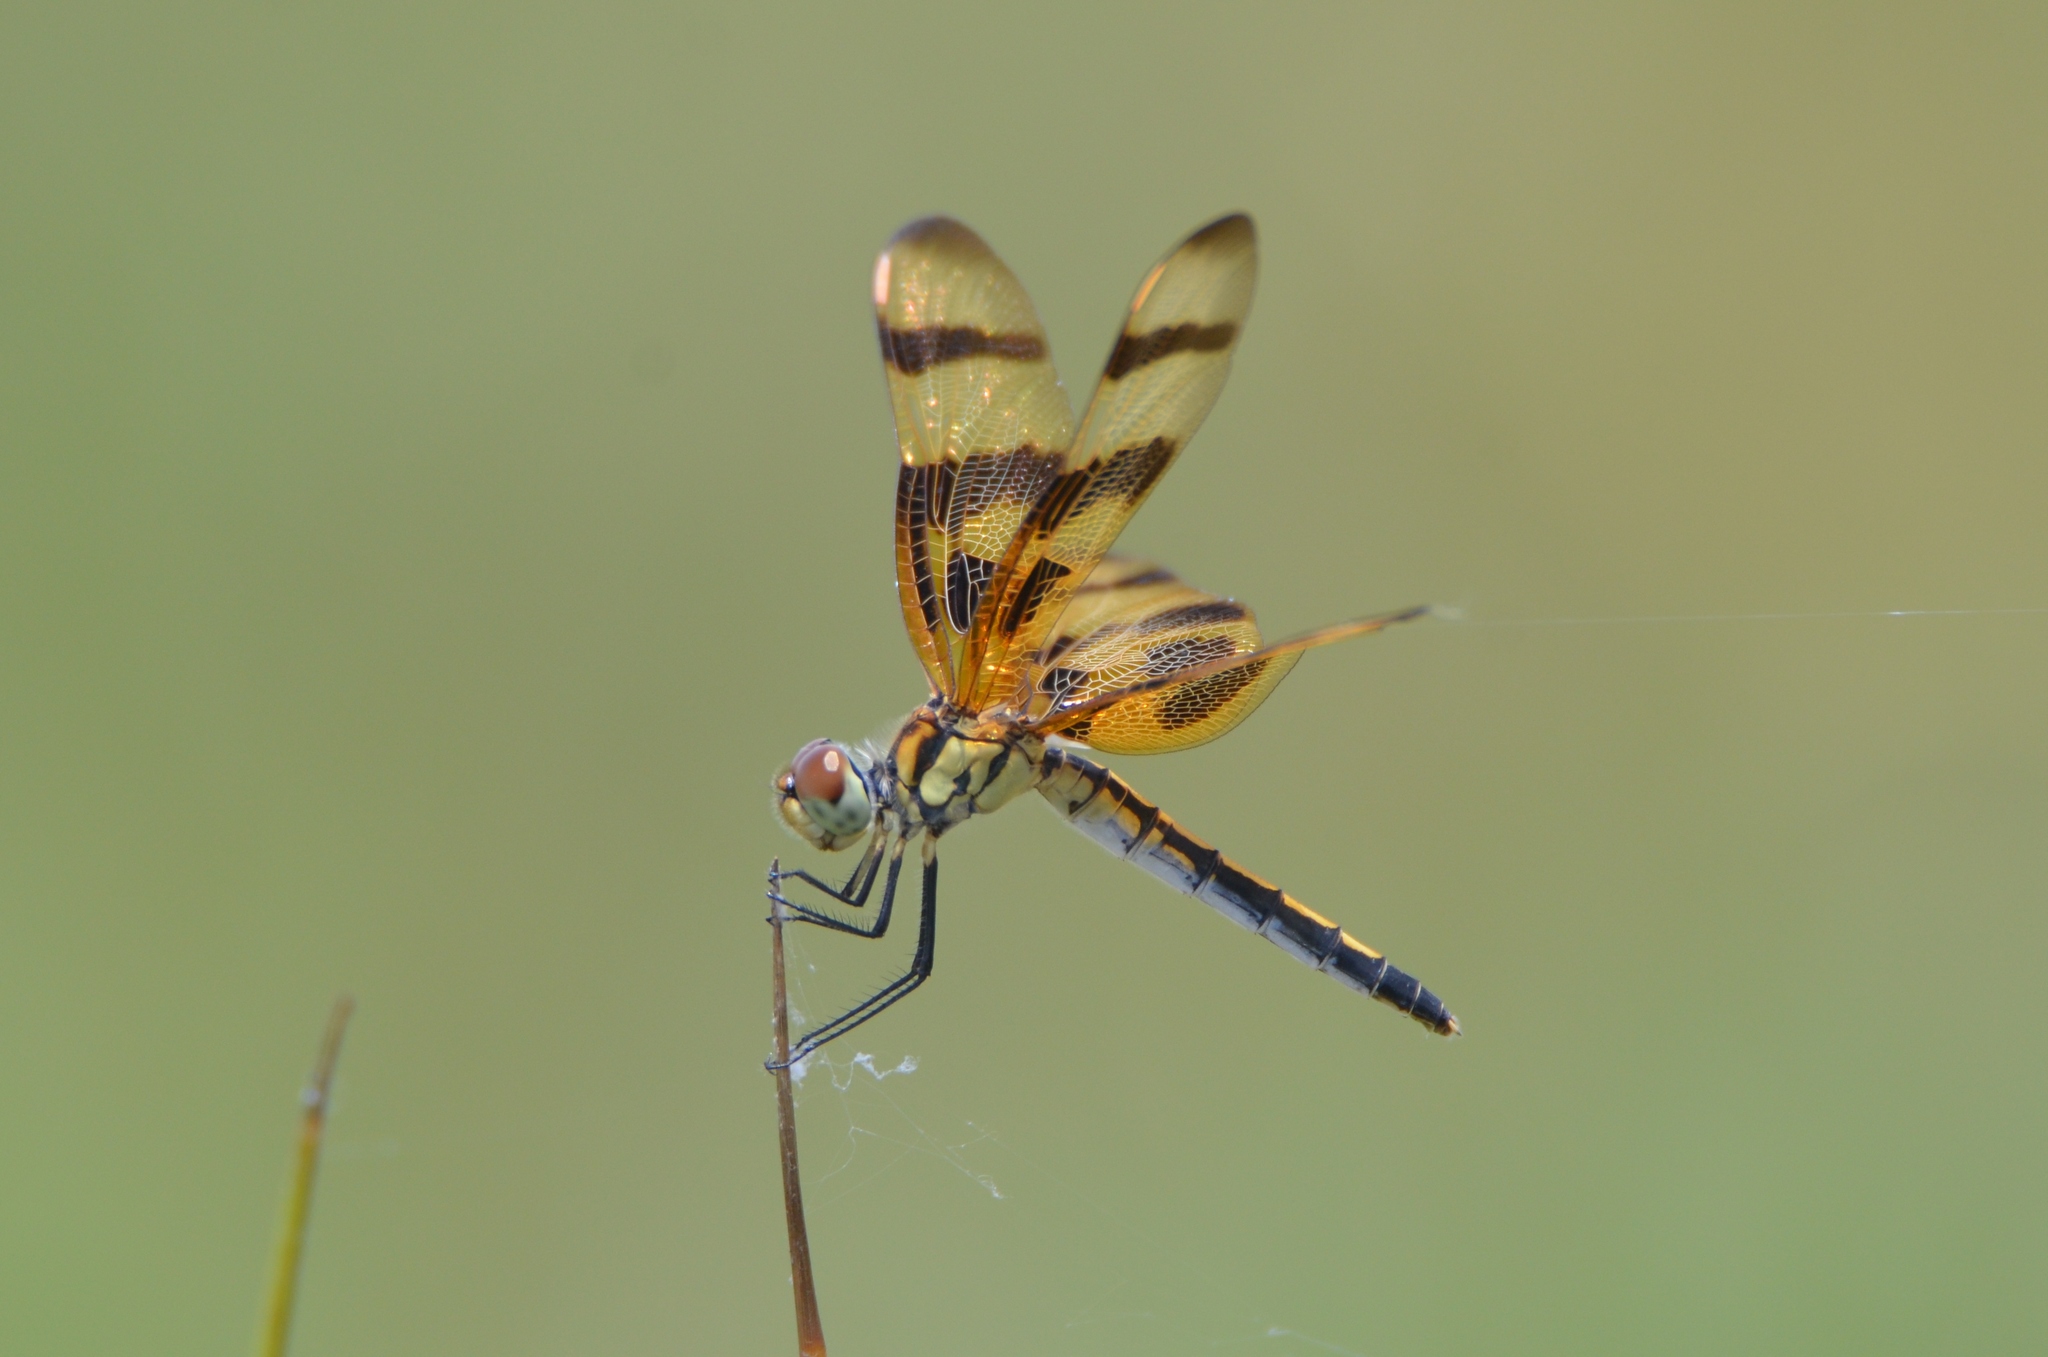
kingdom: Animalia
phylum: Arthropoda
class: Insecta
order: Odonata
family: Libellulidae
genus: Celithemis
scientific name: Celithemis eponina
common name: Halloween pennant
